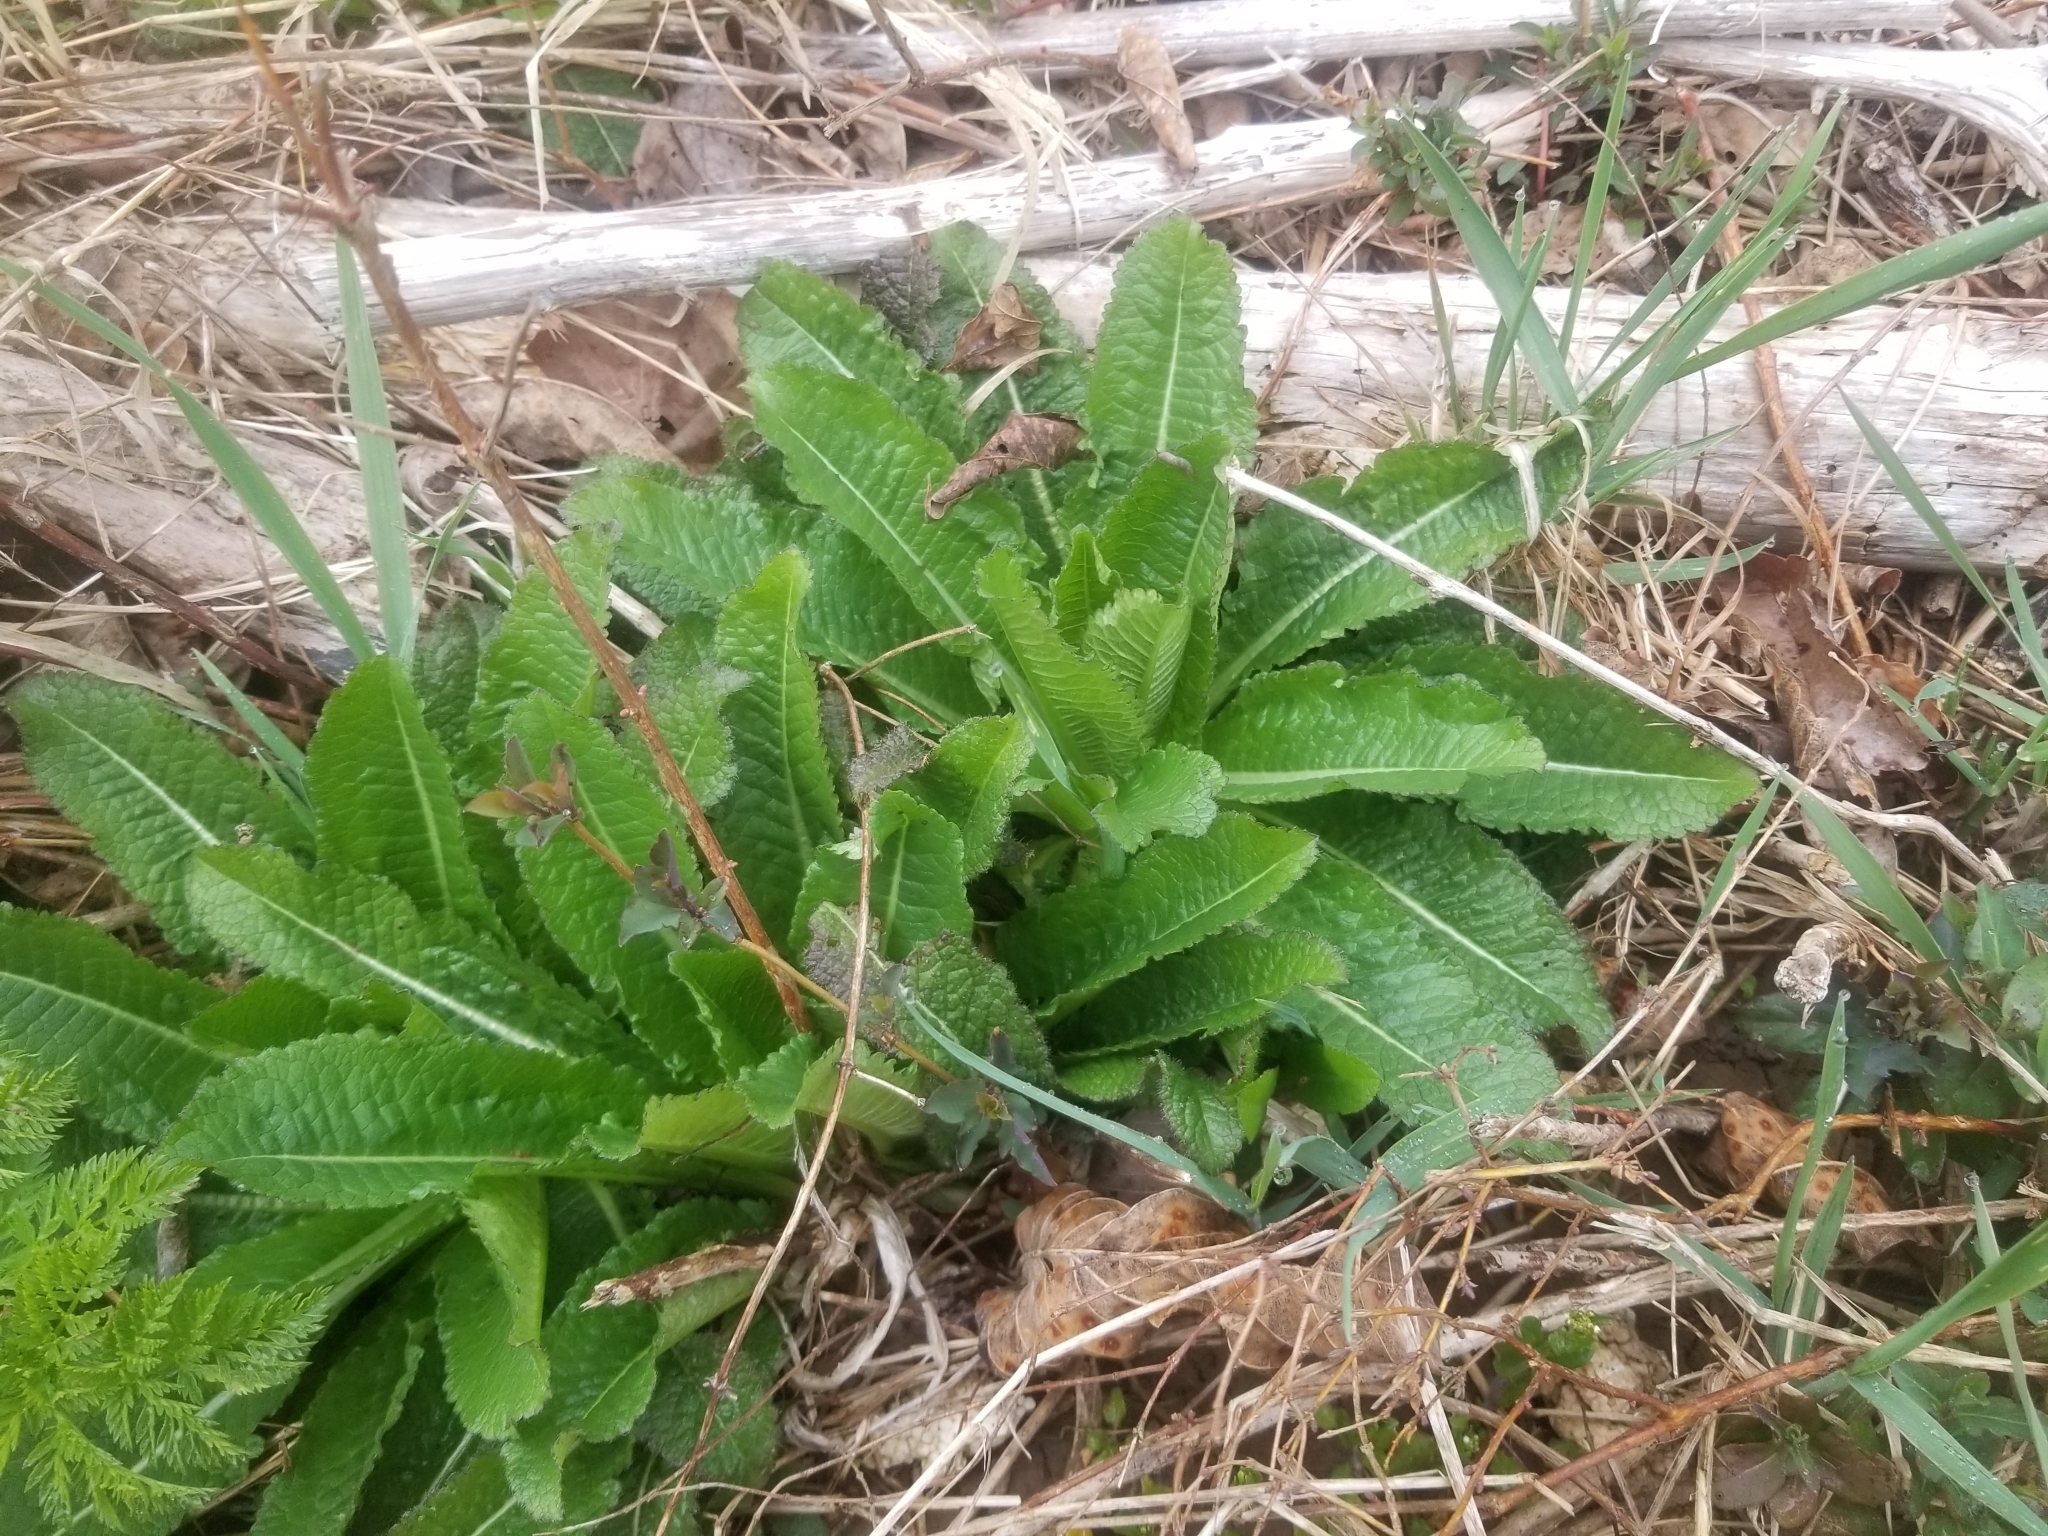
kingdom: Plantae
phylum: Tracheophyta
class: Magnoliopsida
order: Dipsacales
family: Caprifoliaceae
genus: Dipsacus
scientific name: Dipsacus laciniatus
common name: Cut-leaved teasel
